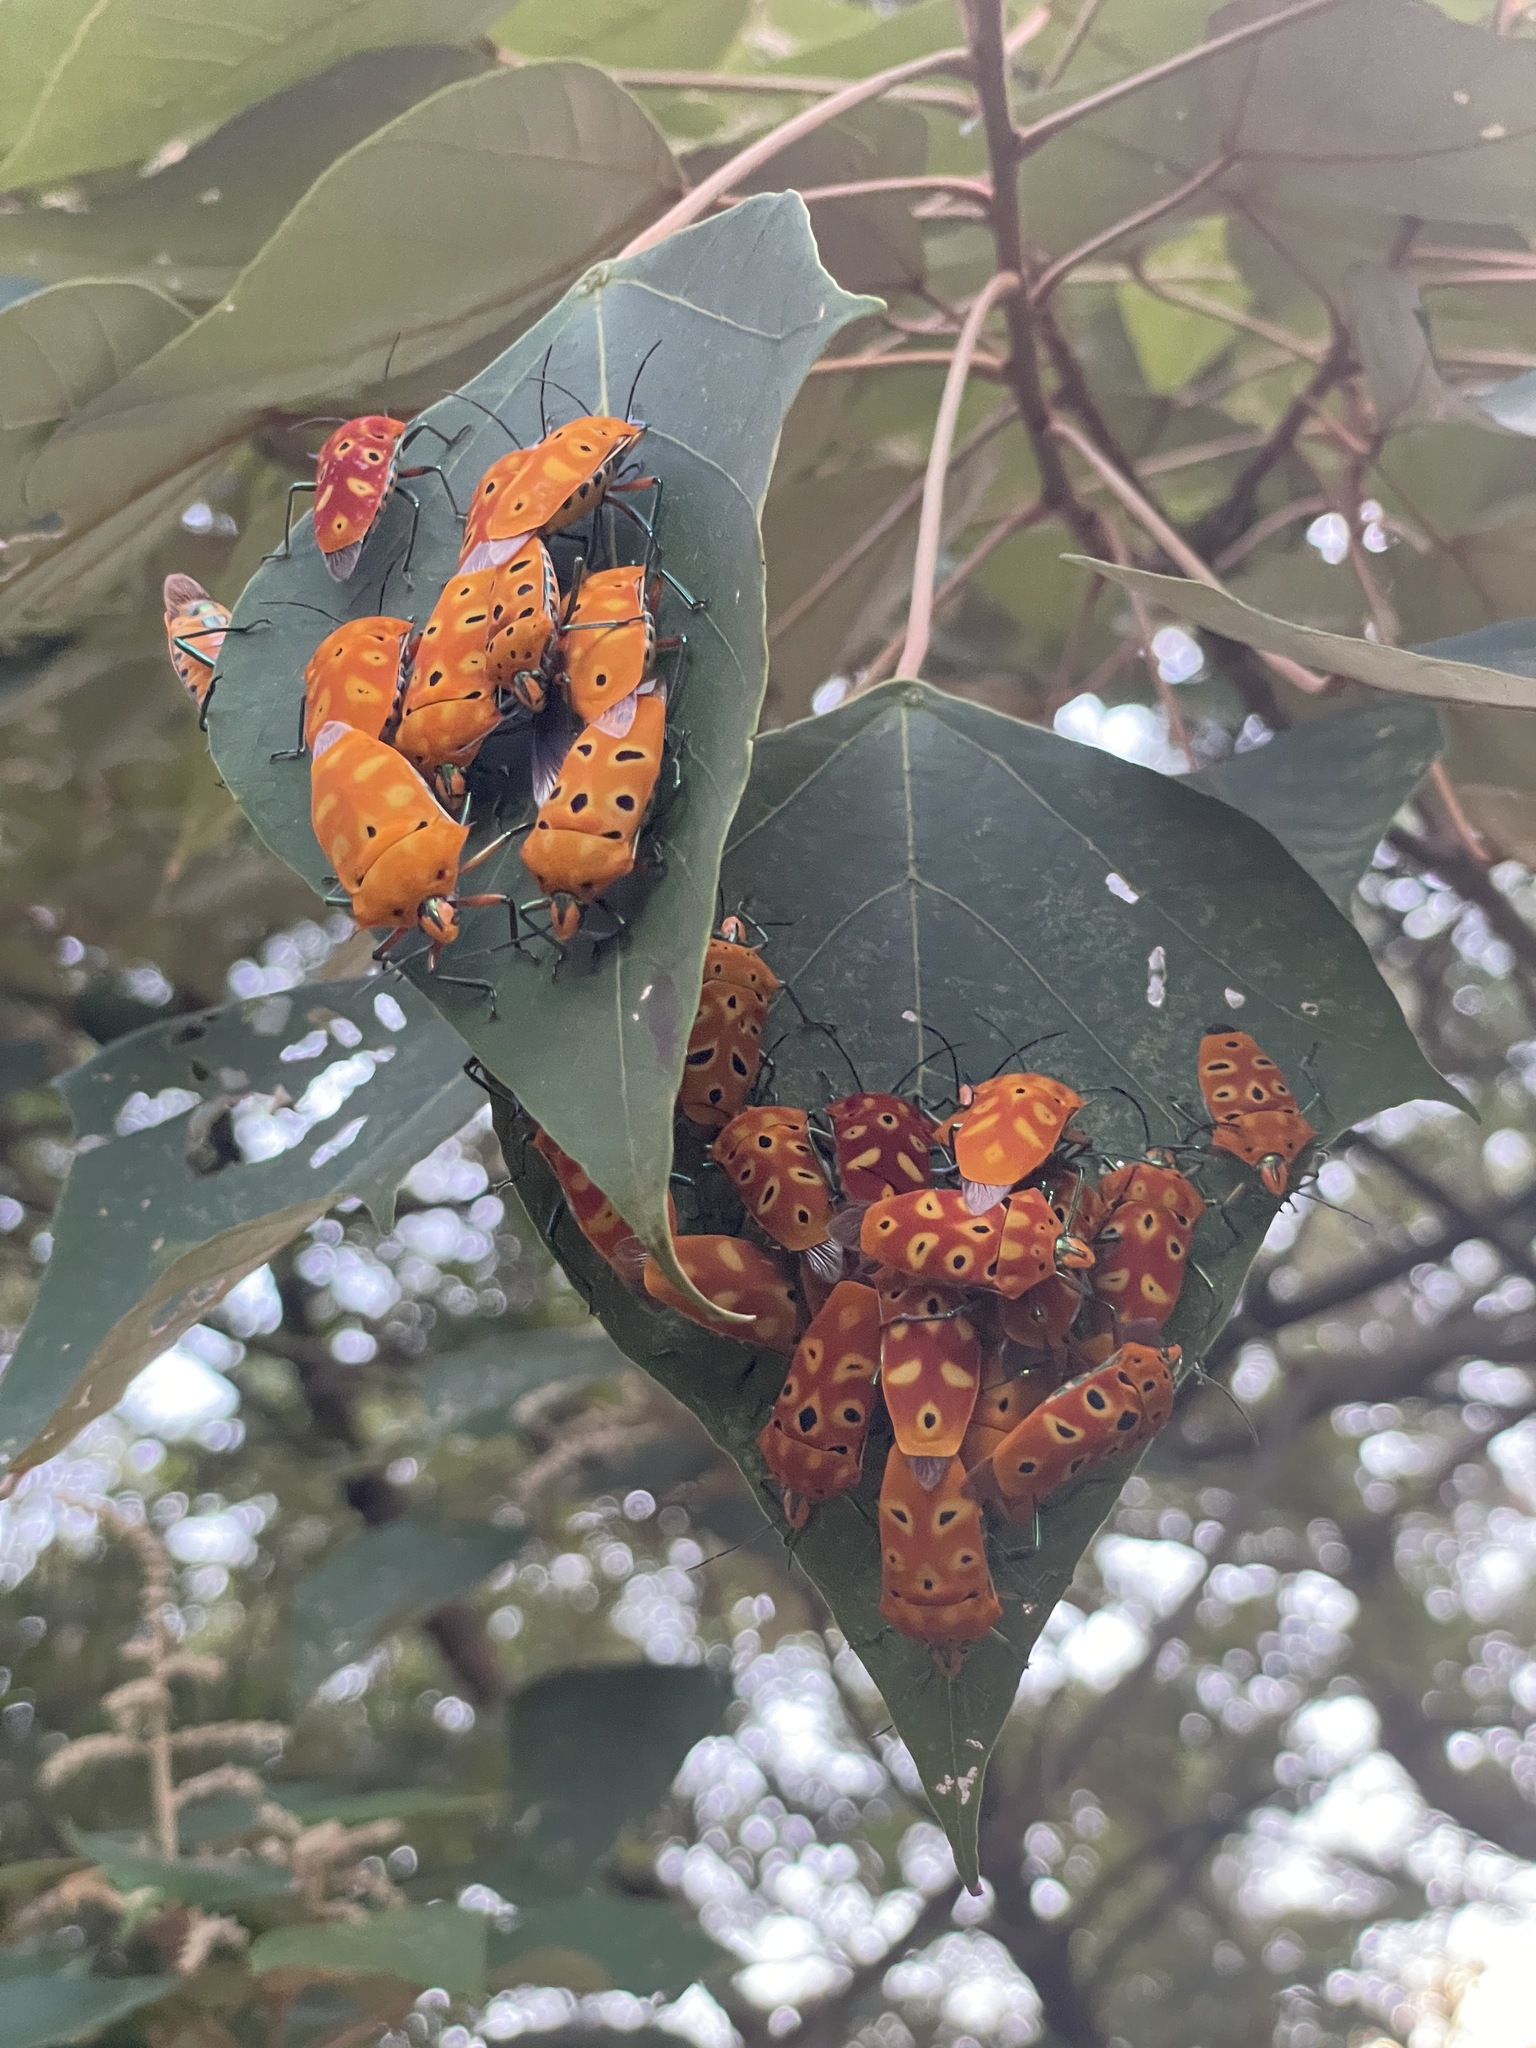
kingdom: Animalia
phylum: Arthropoda
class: Insecta
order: Hemiptera
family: Scutelleridae
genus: Cantao
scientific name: Cantao ocellatus
